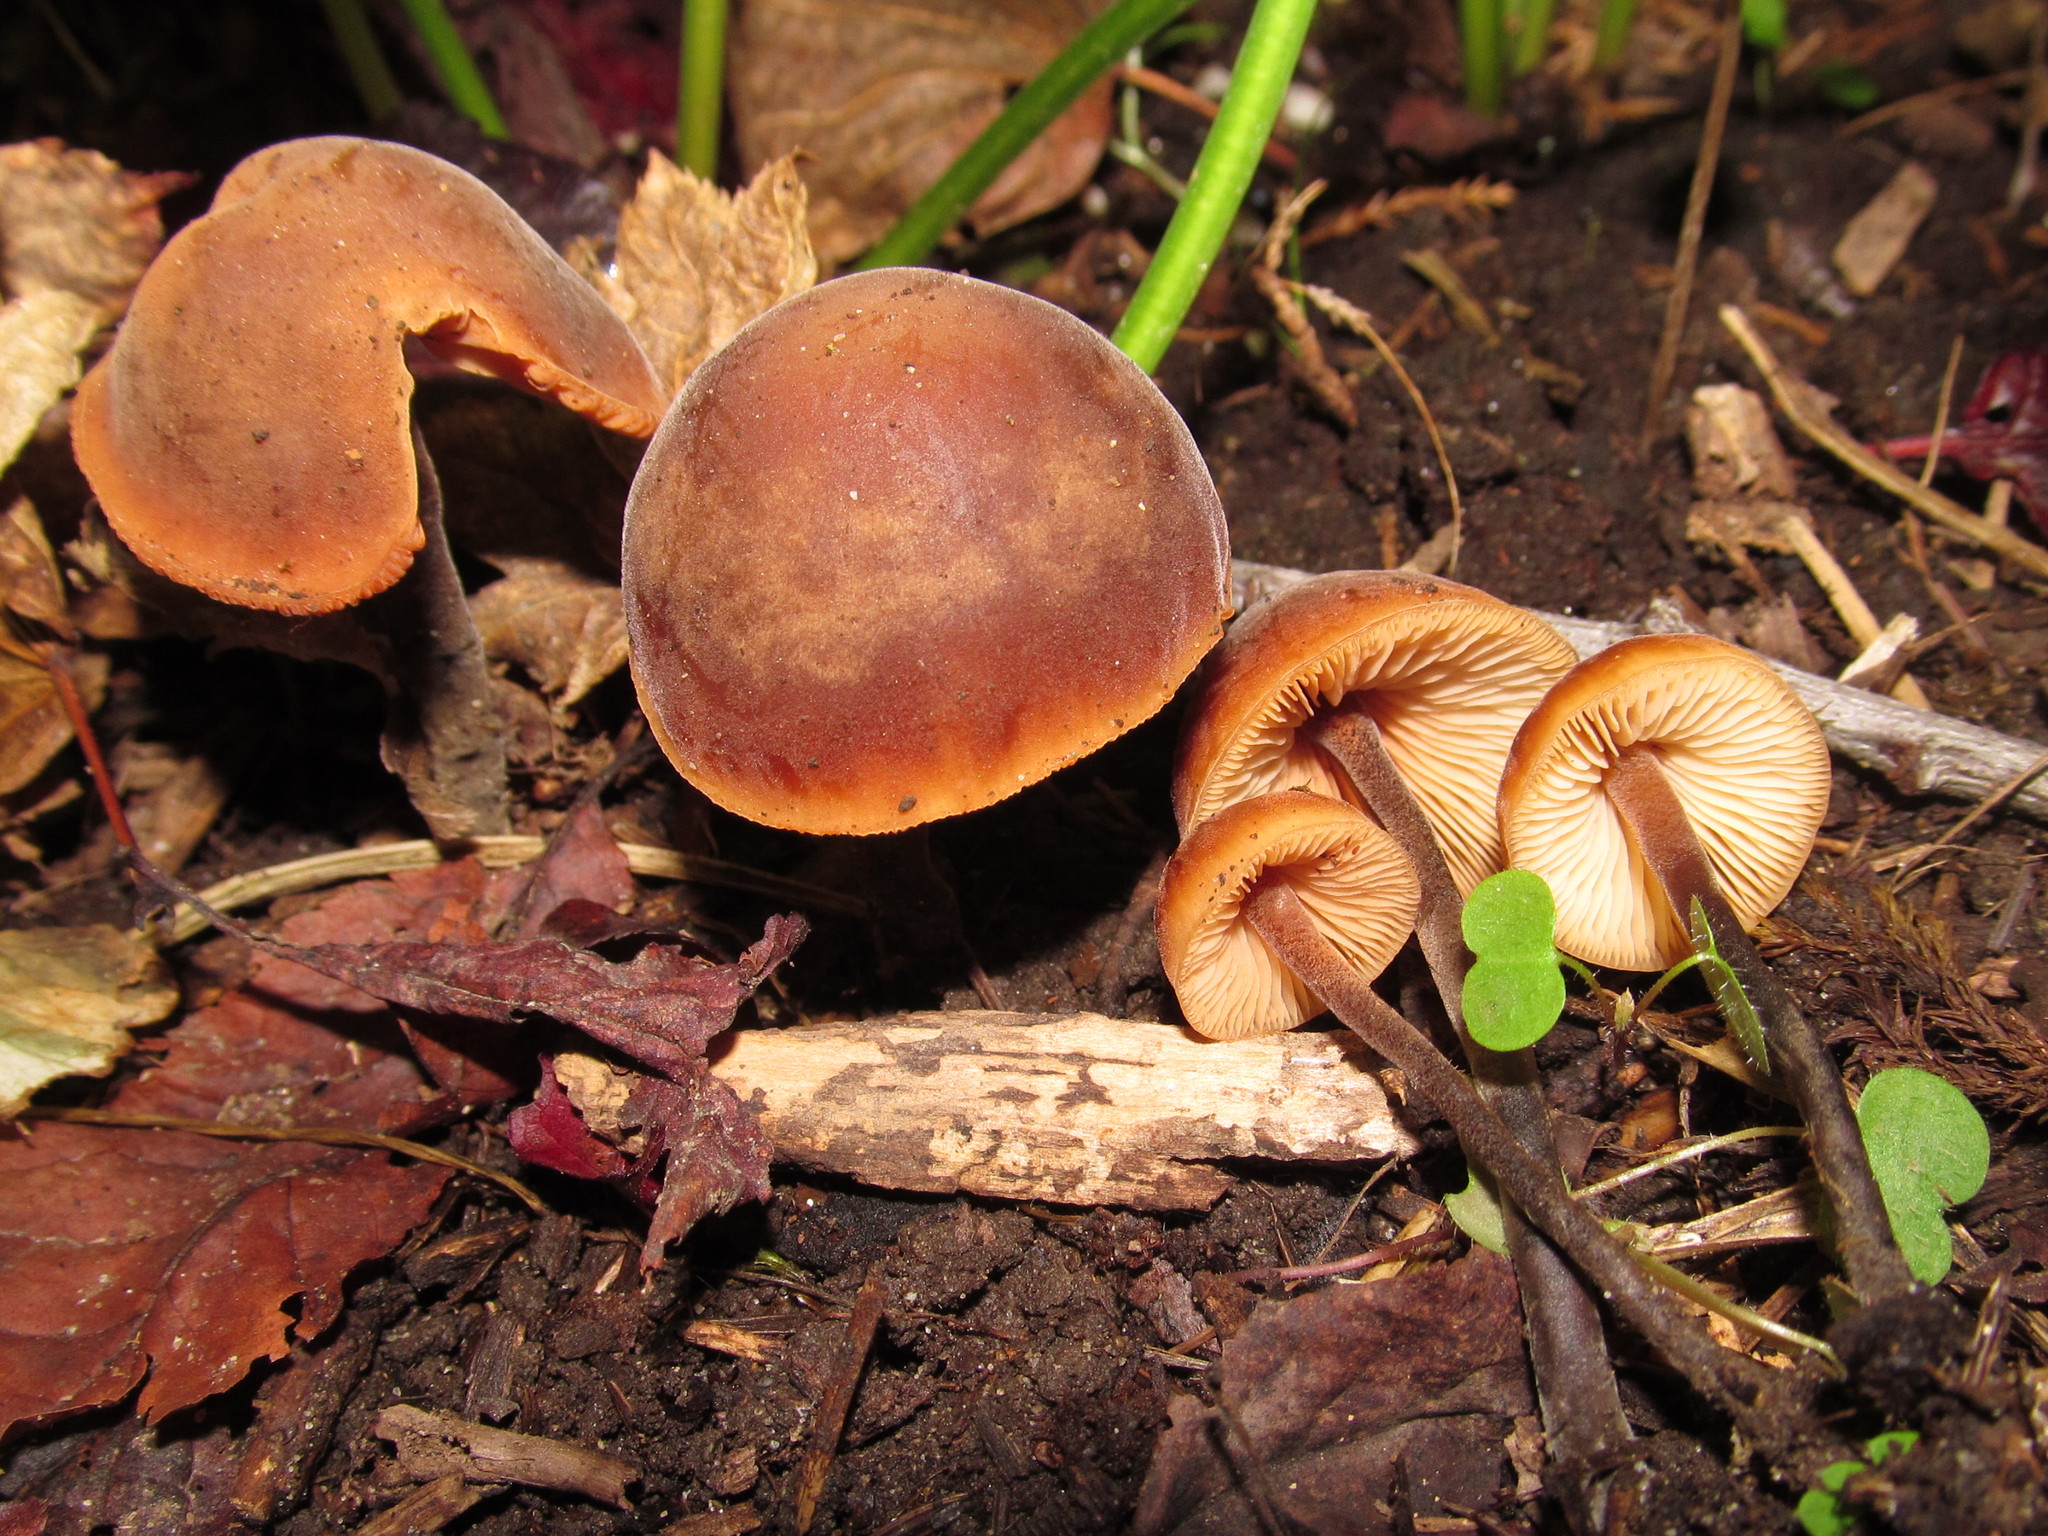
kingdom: Fungi
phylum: Basidiomycota
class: Agaricomycetes
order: Agaricales
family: Macrocystidiaceae
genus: Macrocystidia
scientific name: Macrocystidia cucumis
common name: Cucumber cap
